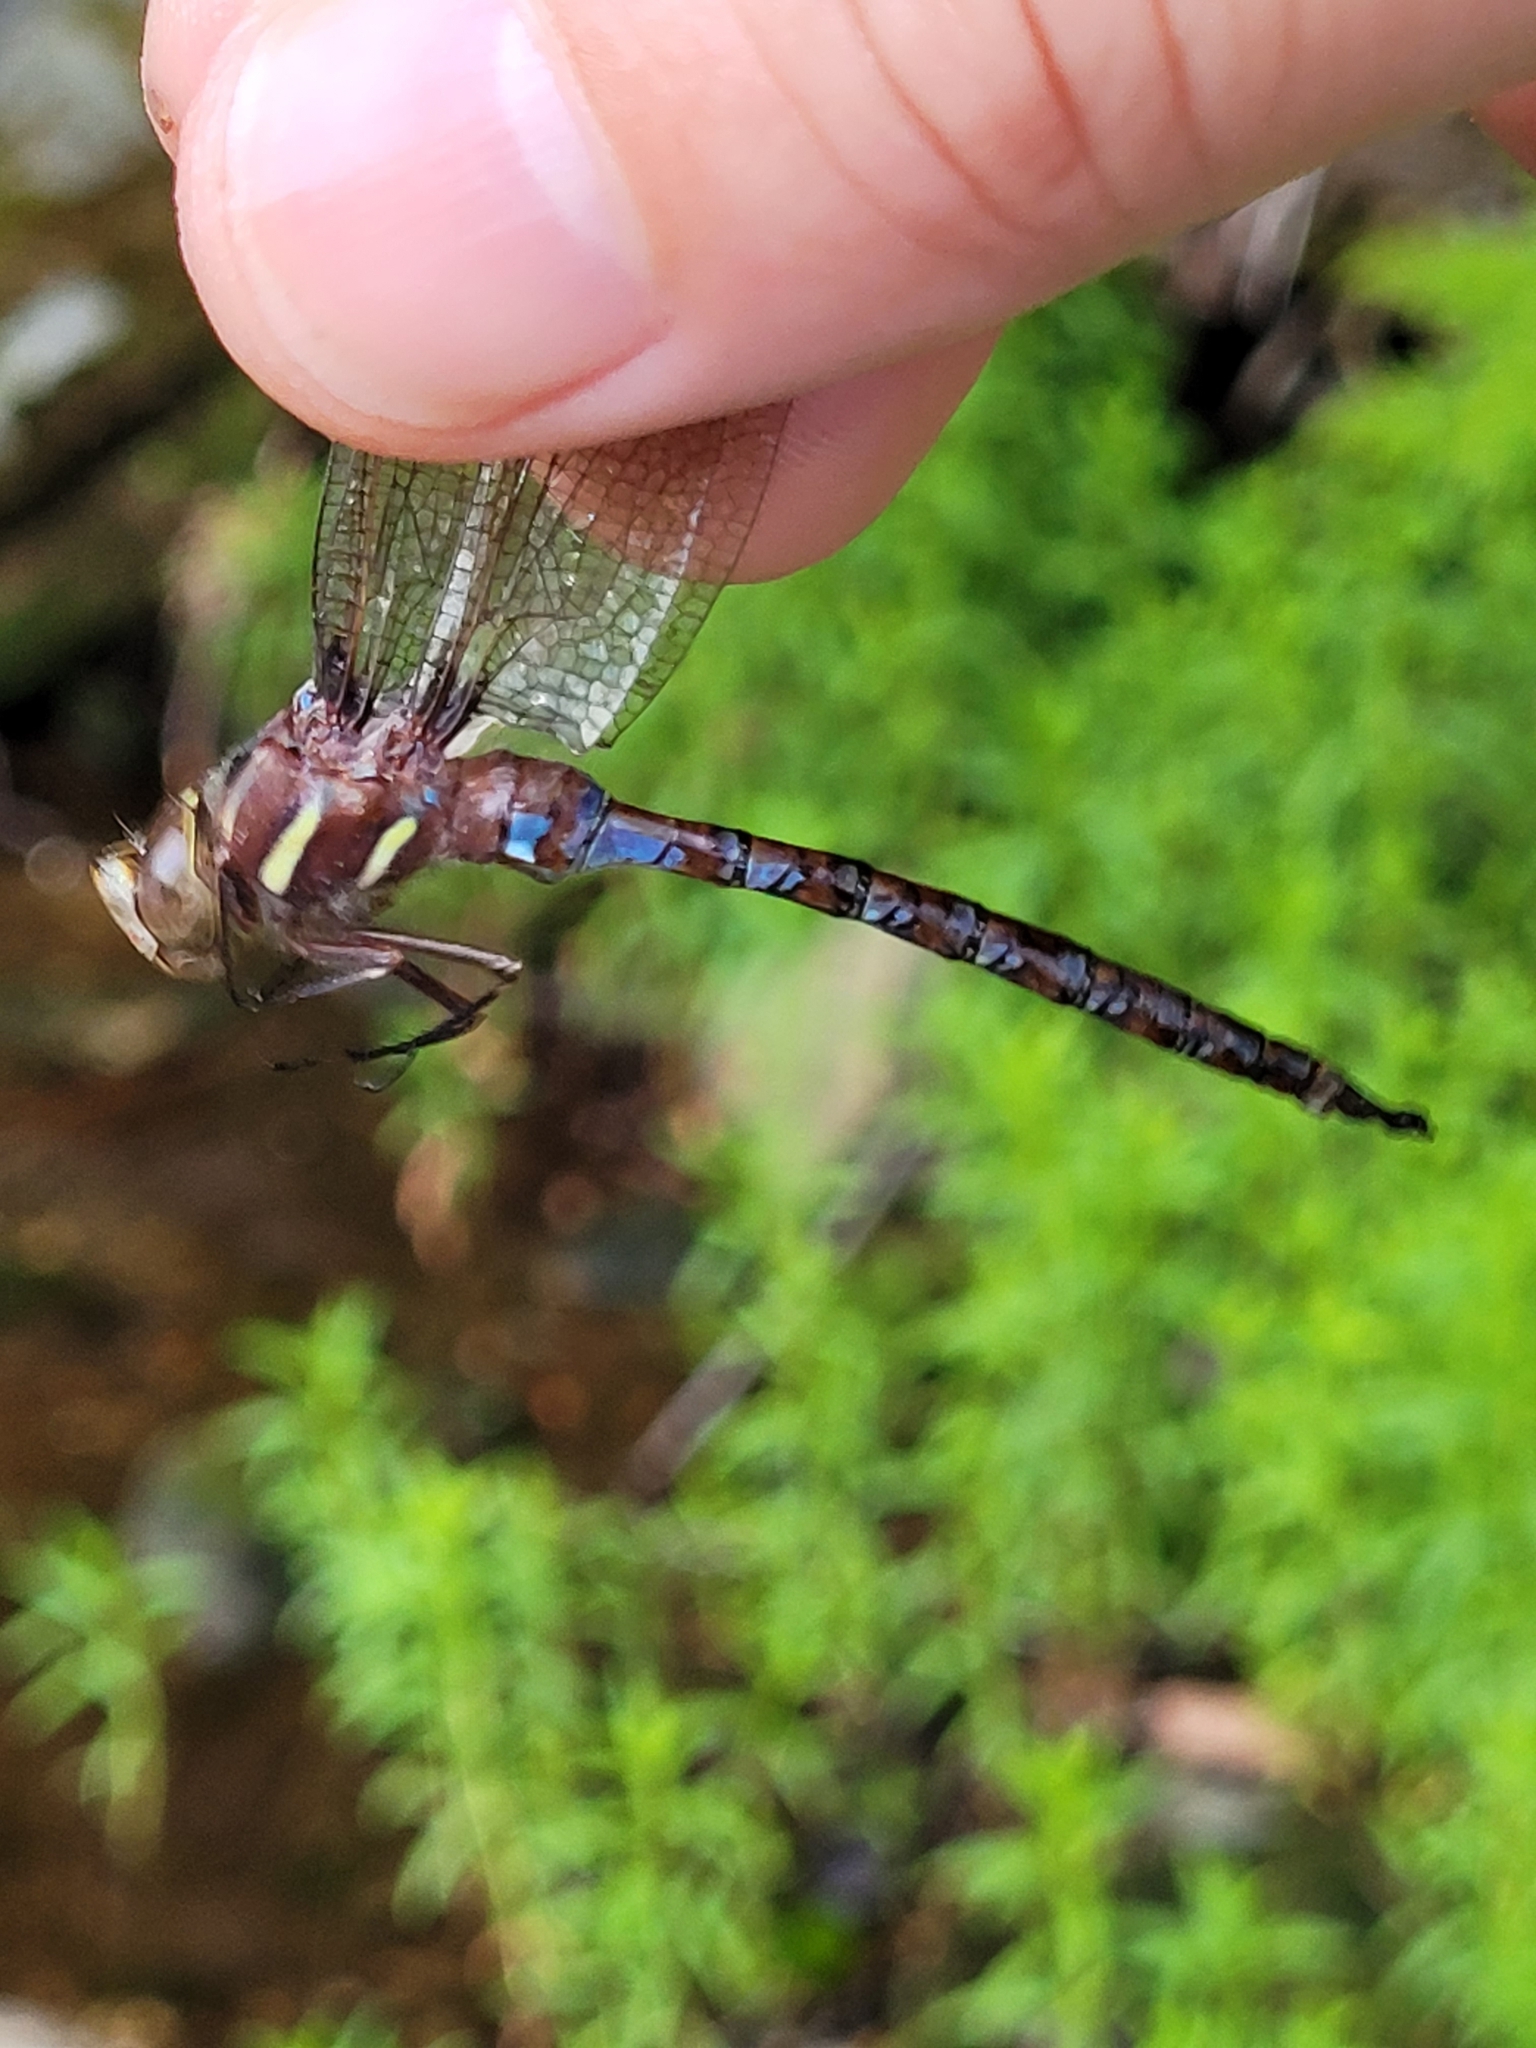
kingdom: Animalia
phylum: Arthropoda
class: Insecta
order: Odonata
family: Aeshnidae
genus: Basiaeschna
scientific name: Basiaeschna janata
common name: Springtime darner
